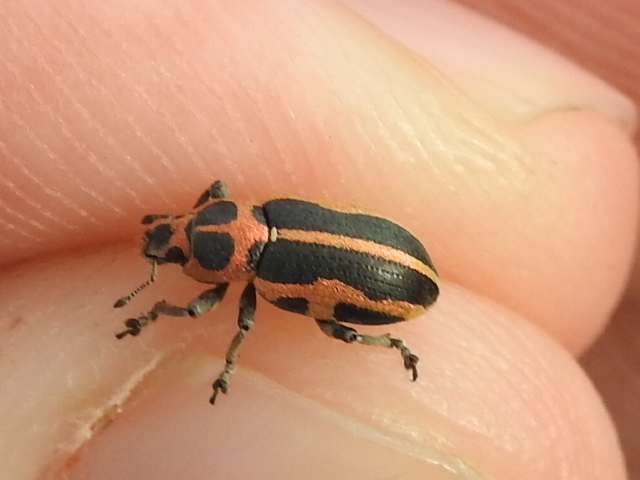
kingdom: Animalia
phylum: Arthropoda
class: Insecta
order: Coleoptera
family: Curculionidae
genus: Eudiagogus
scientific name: Eudiagogus pulcher
